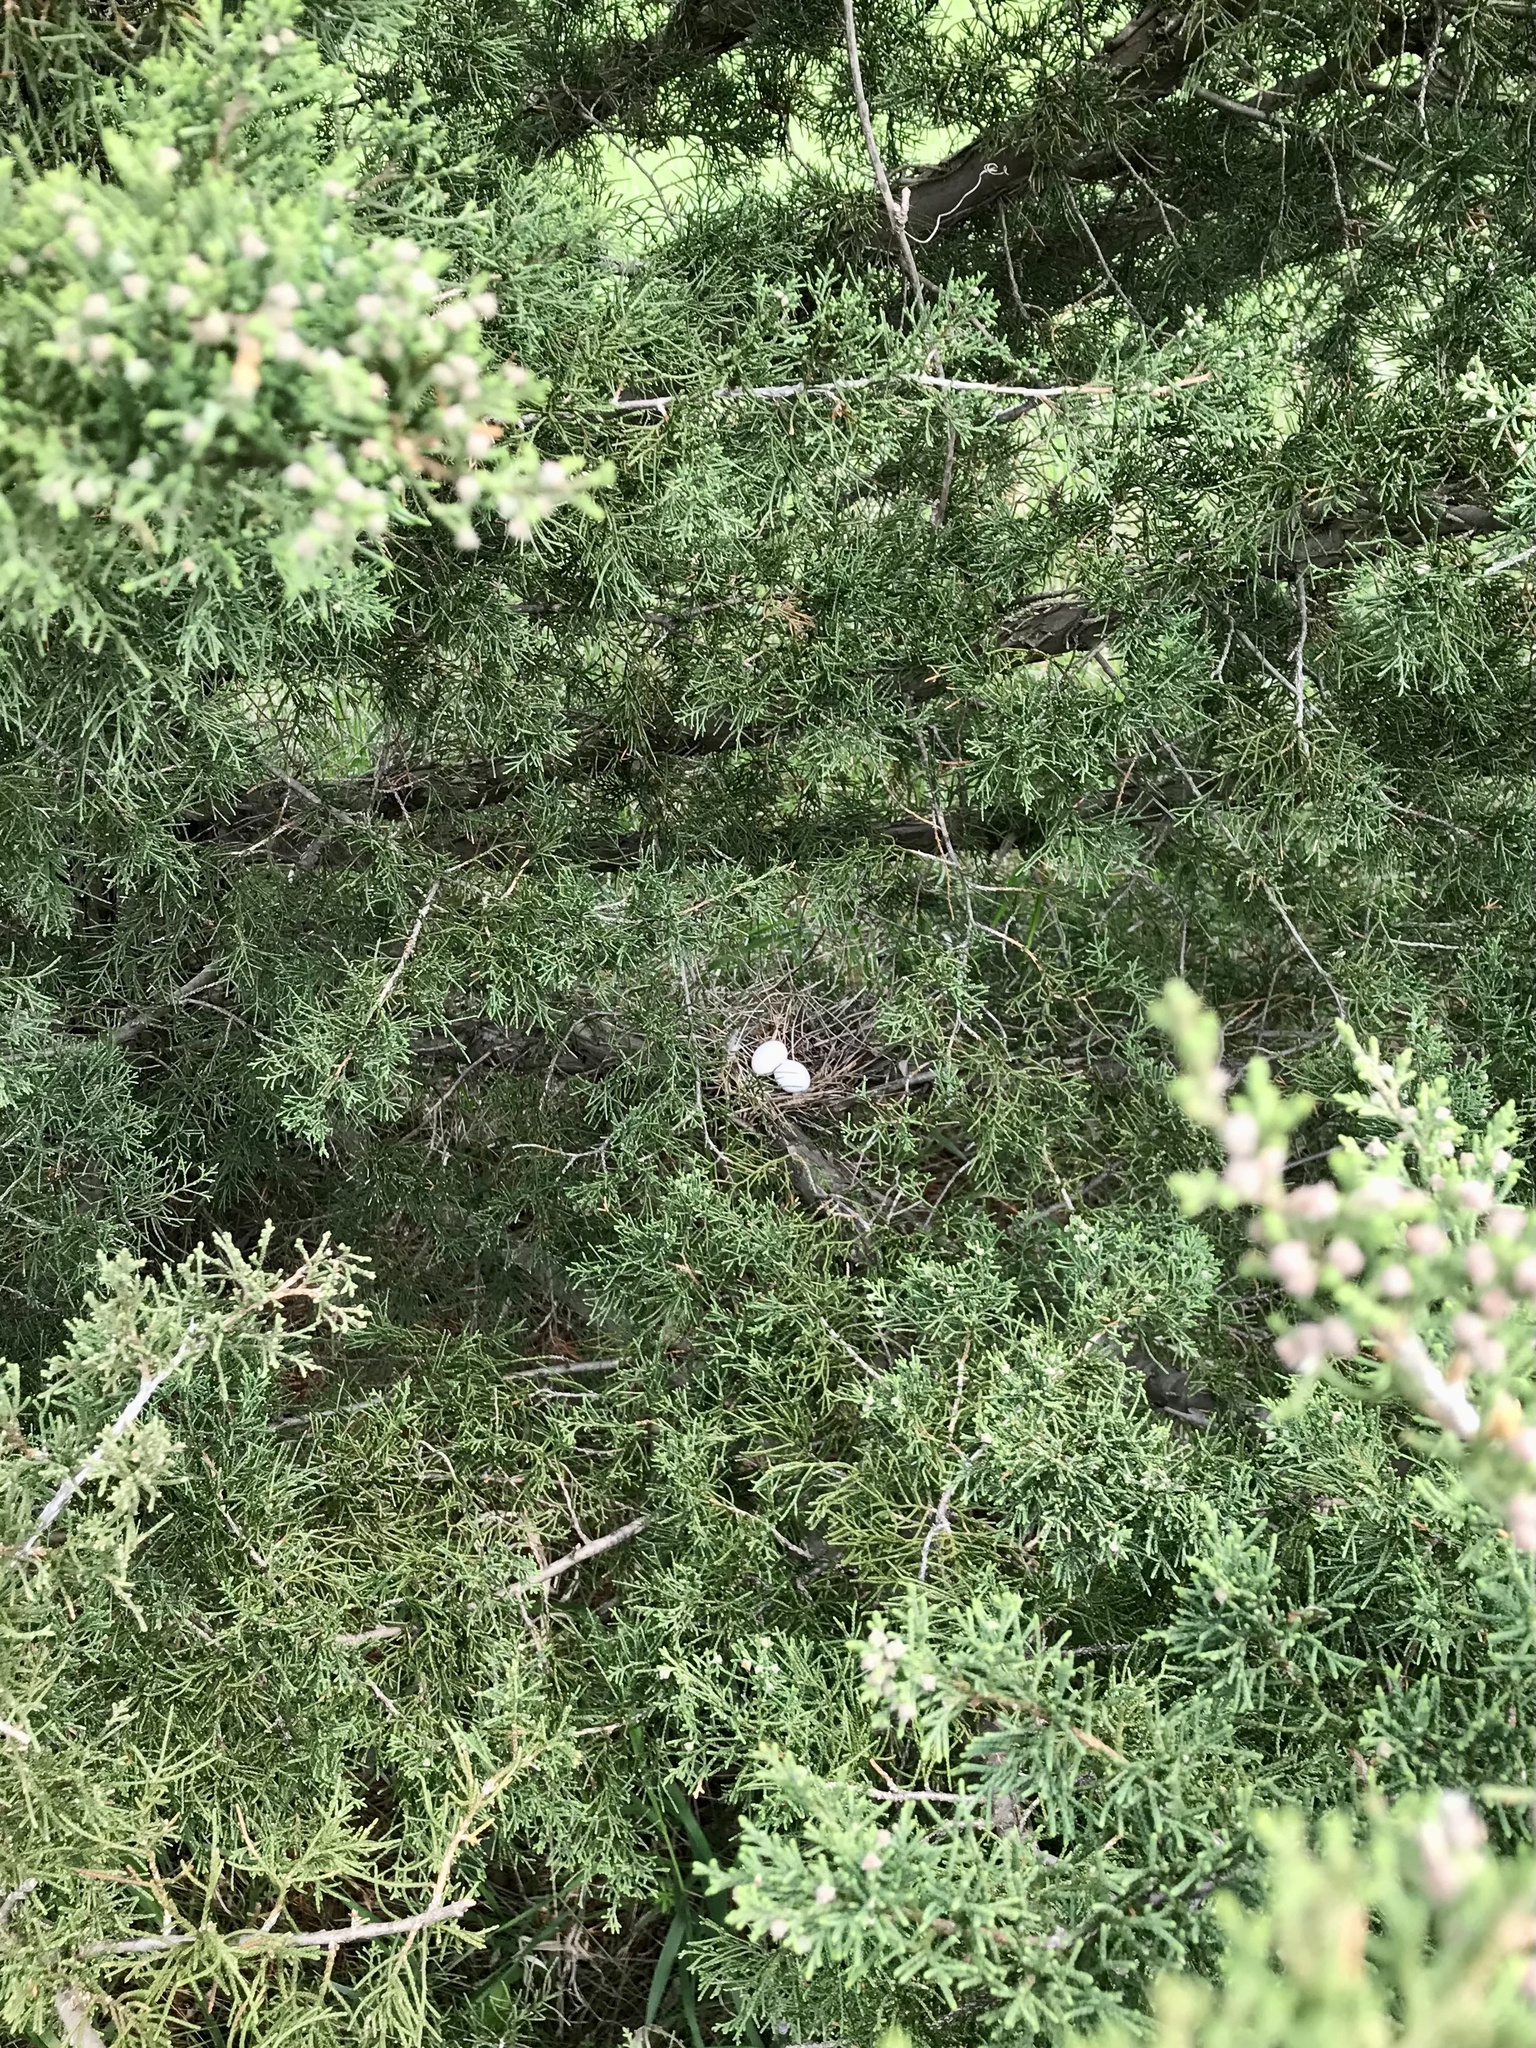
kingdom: Animalia
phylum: Chordata
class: Aves
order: Columbiformes
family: Columbidae
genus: Zenaida
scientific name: Zenaida macroura
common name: Mourning dove
